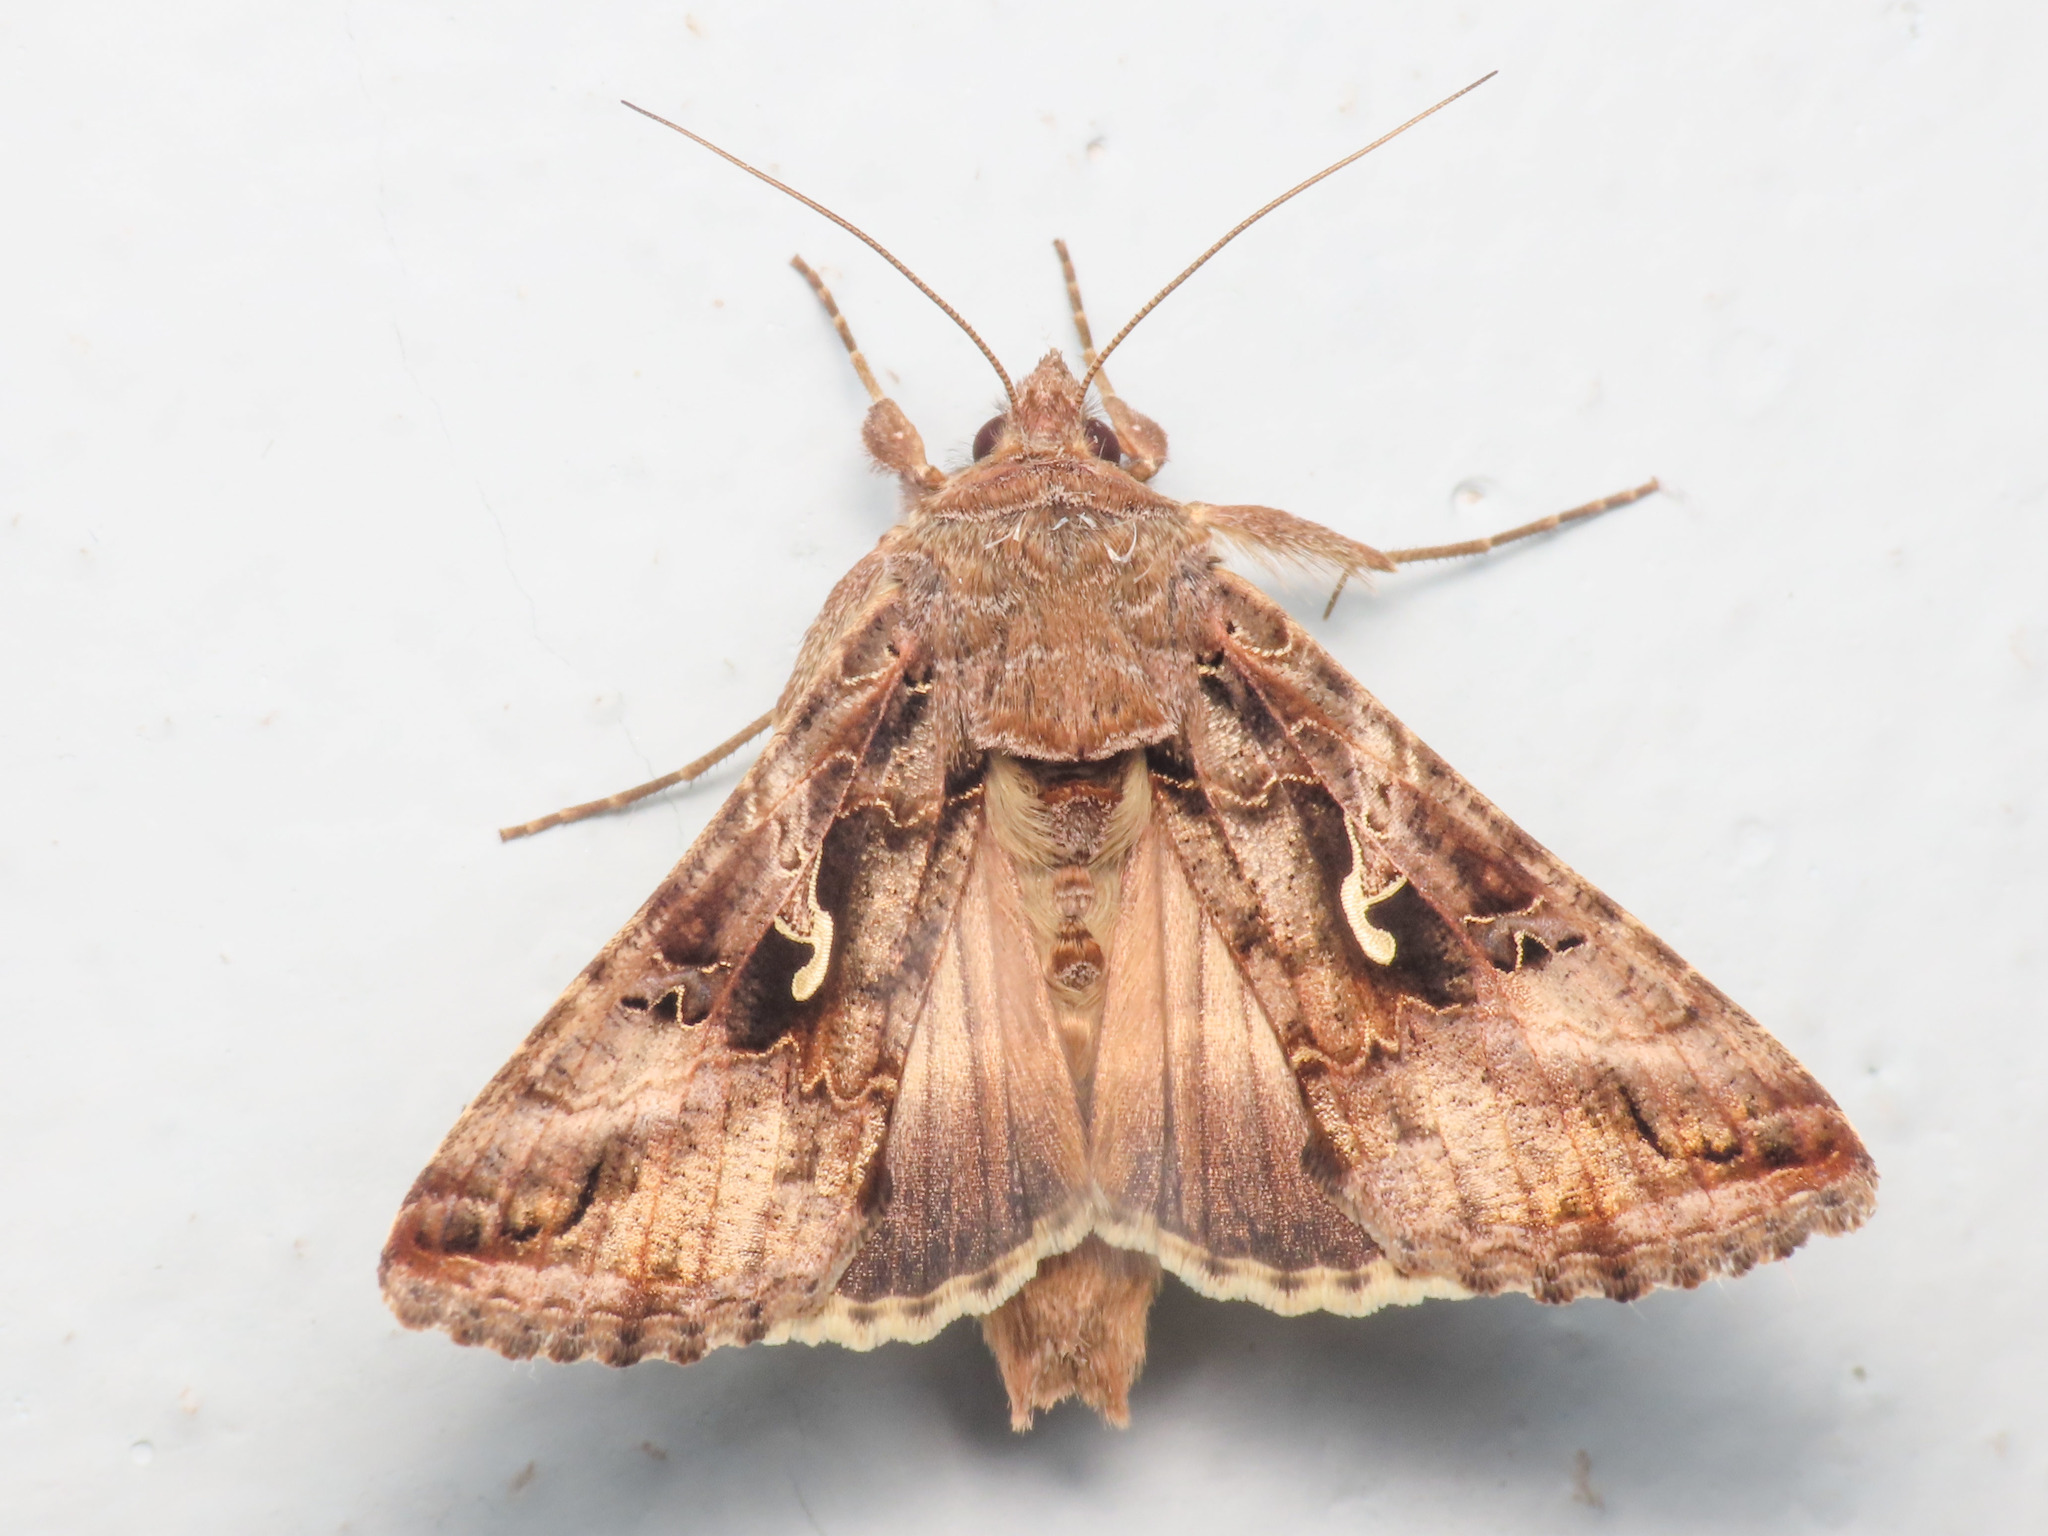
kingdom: Animalia
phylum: Arthropoda
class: Insecta
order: Lepidoptera
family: Noctuidae
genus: Autographa
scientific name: Autographa gamma
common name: Silver y
